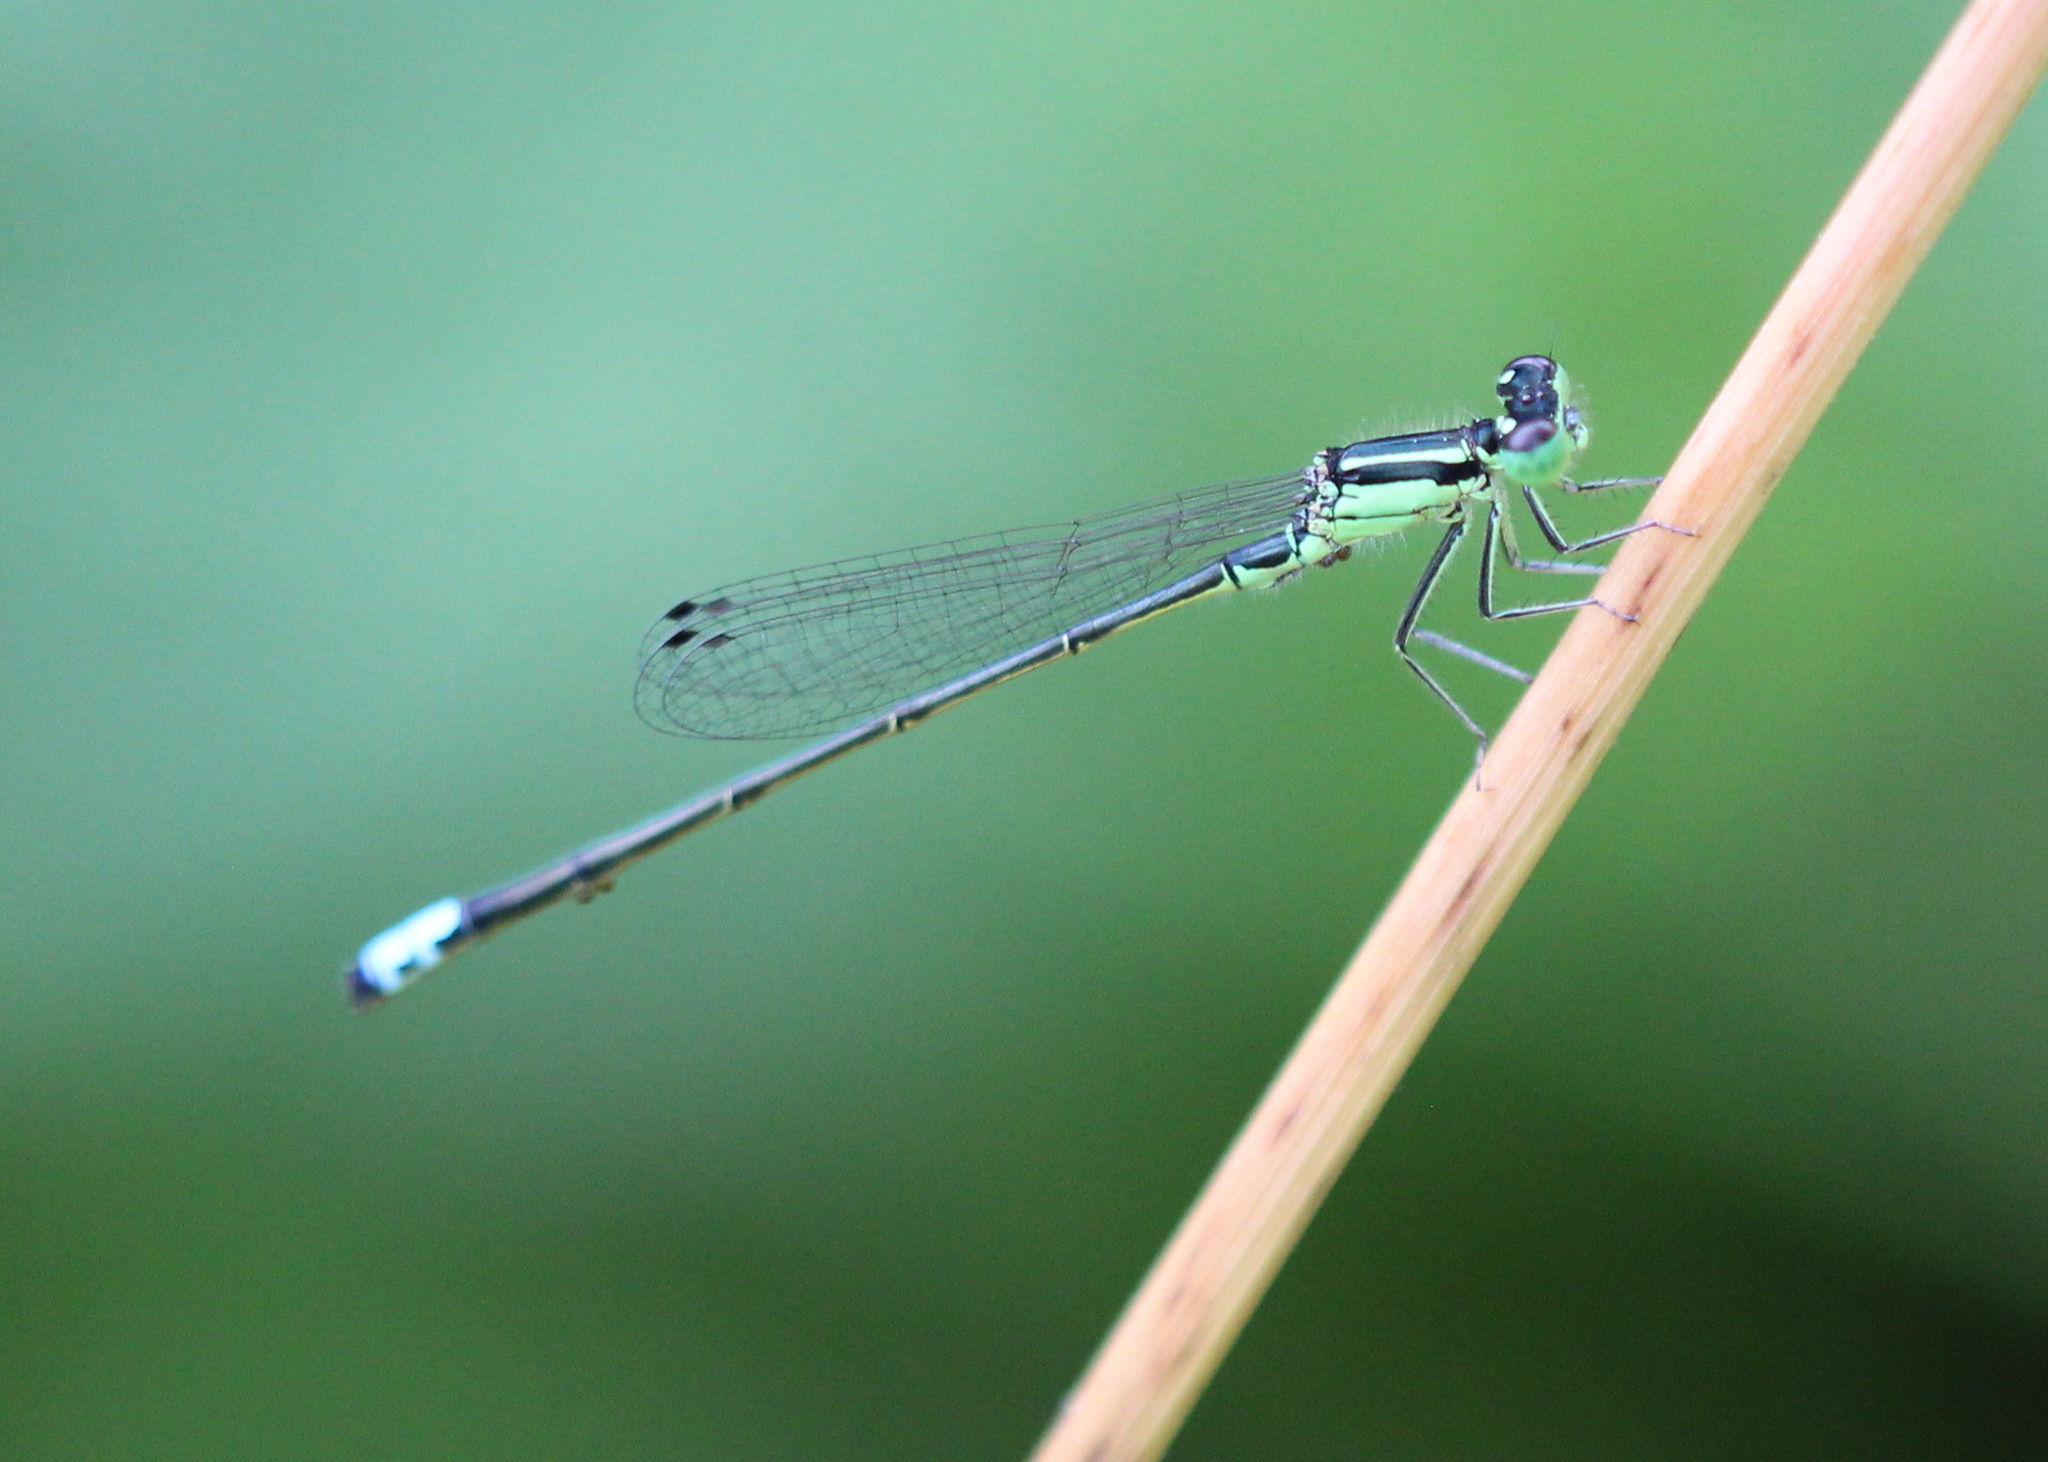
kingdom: Animalia
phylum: Arthropoda
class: Insecta
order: Odonata
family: Coenagrionidae
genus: Ischnura
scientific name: Ischnura verticalis
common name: Eastern forktail
